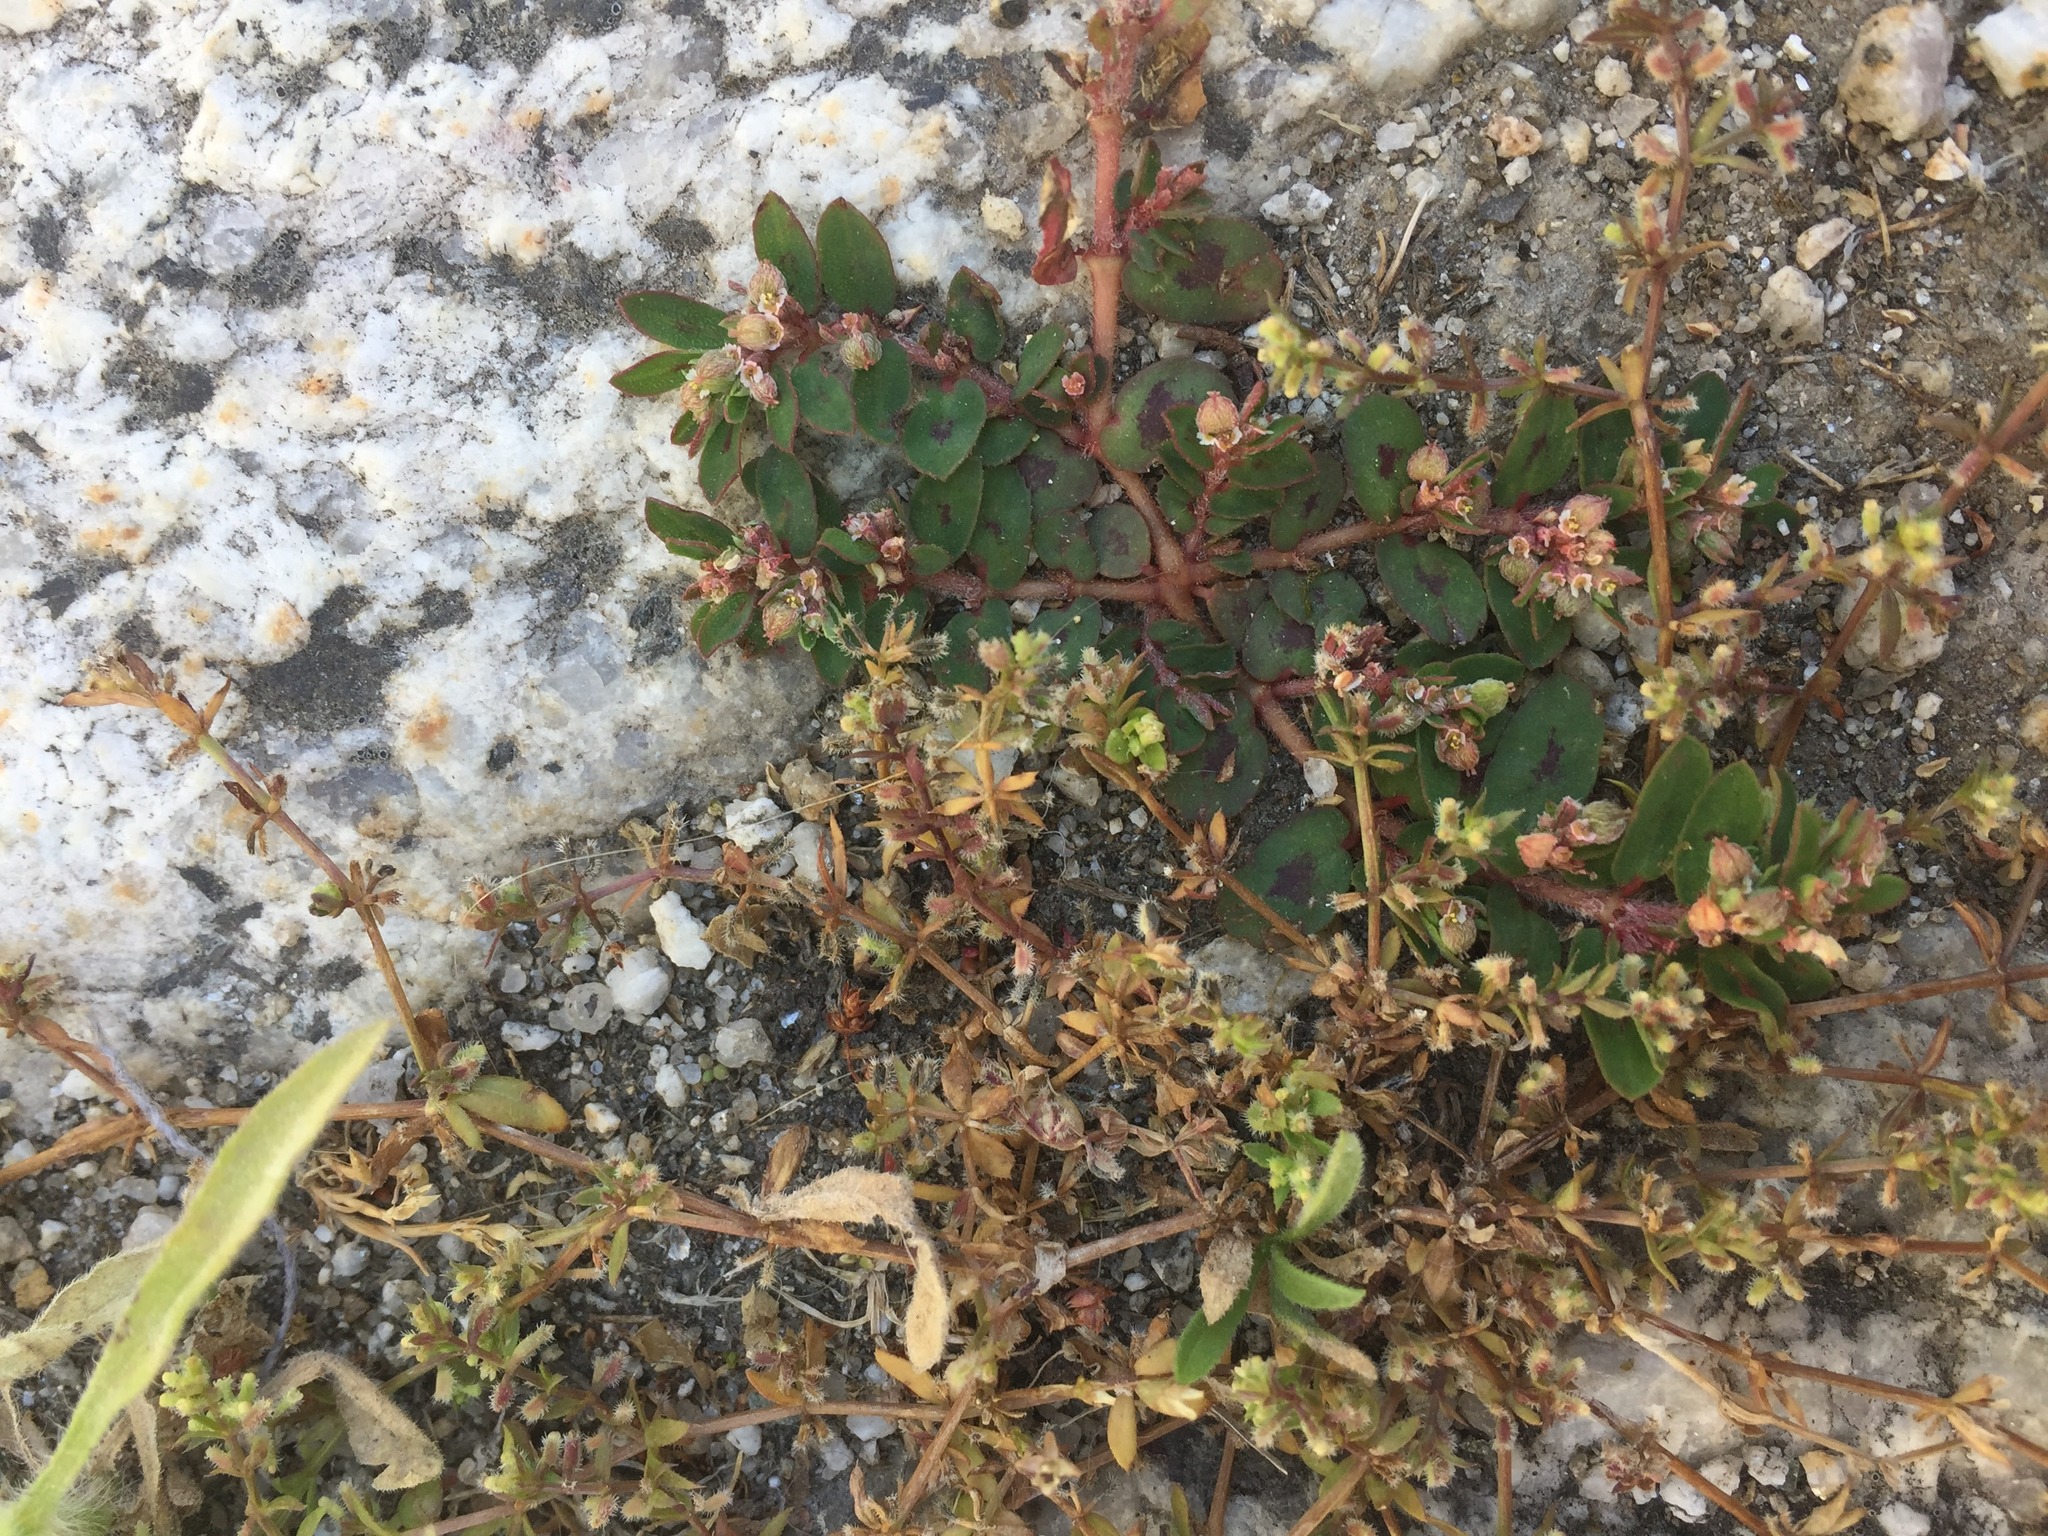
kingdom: Plantae
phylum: Tracheophyta
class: Magnoliopsida
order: Gentianales
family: Rubiaceae
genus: Galium
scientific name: Galium murale
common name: Yellow wall bedstraw
